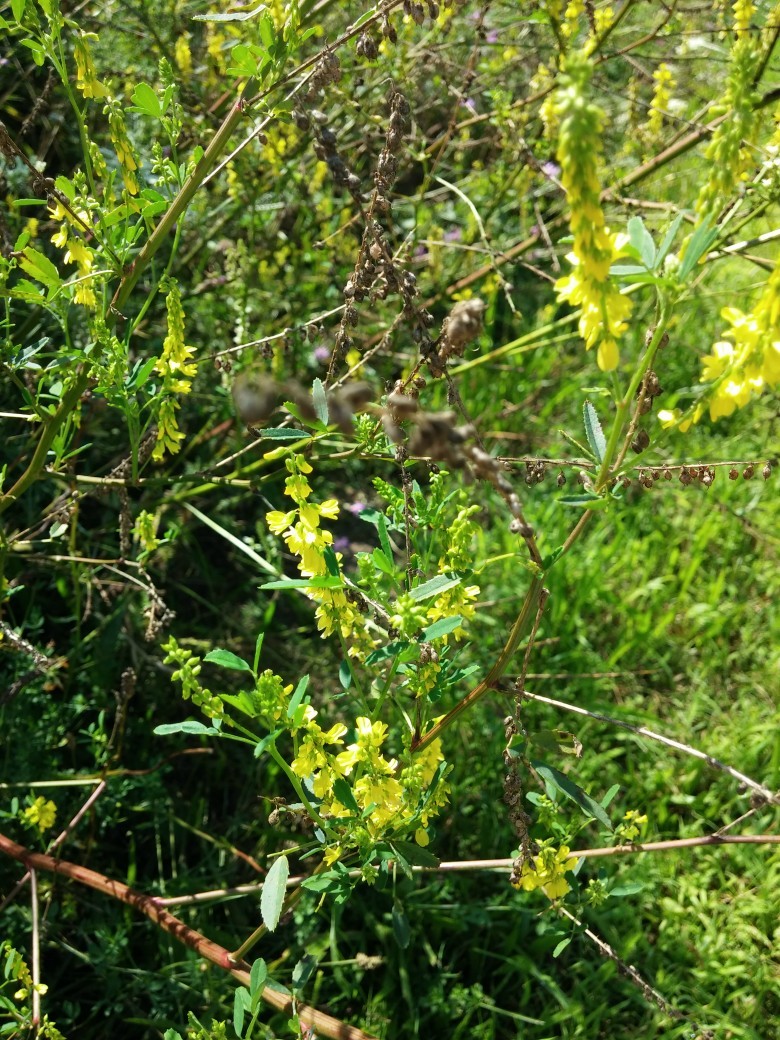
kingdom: Plantae
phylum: Tracheophyta
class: Magnoliopsida
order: Fabales
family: Fabaceae
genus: Melilotus
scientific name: Melilotus officinalis
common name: Sweetclover
